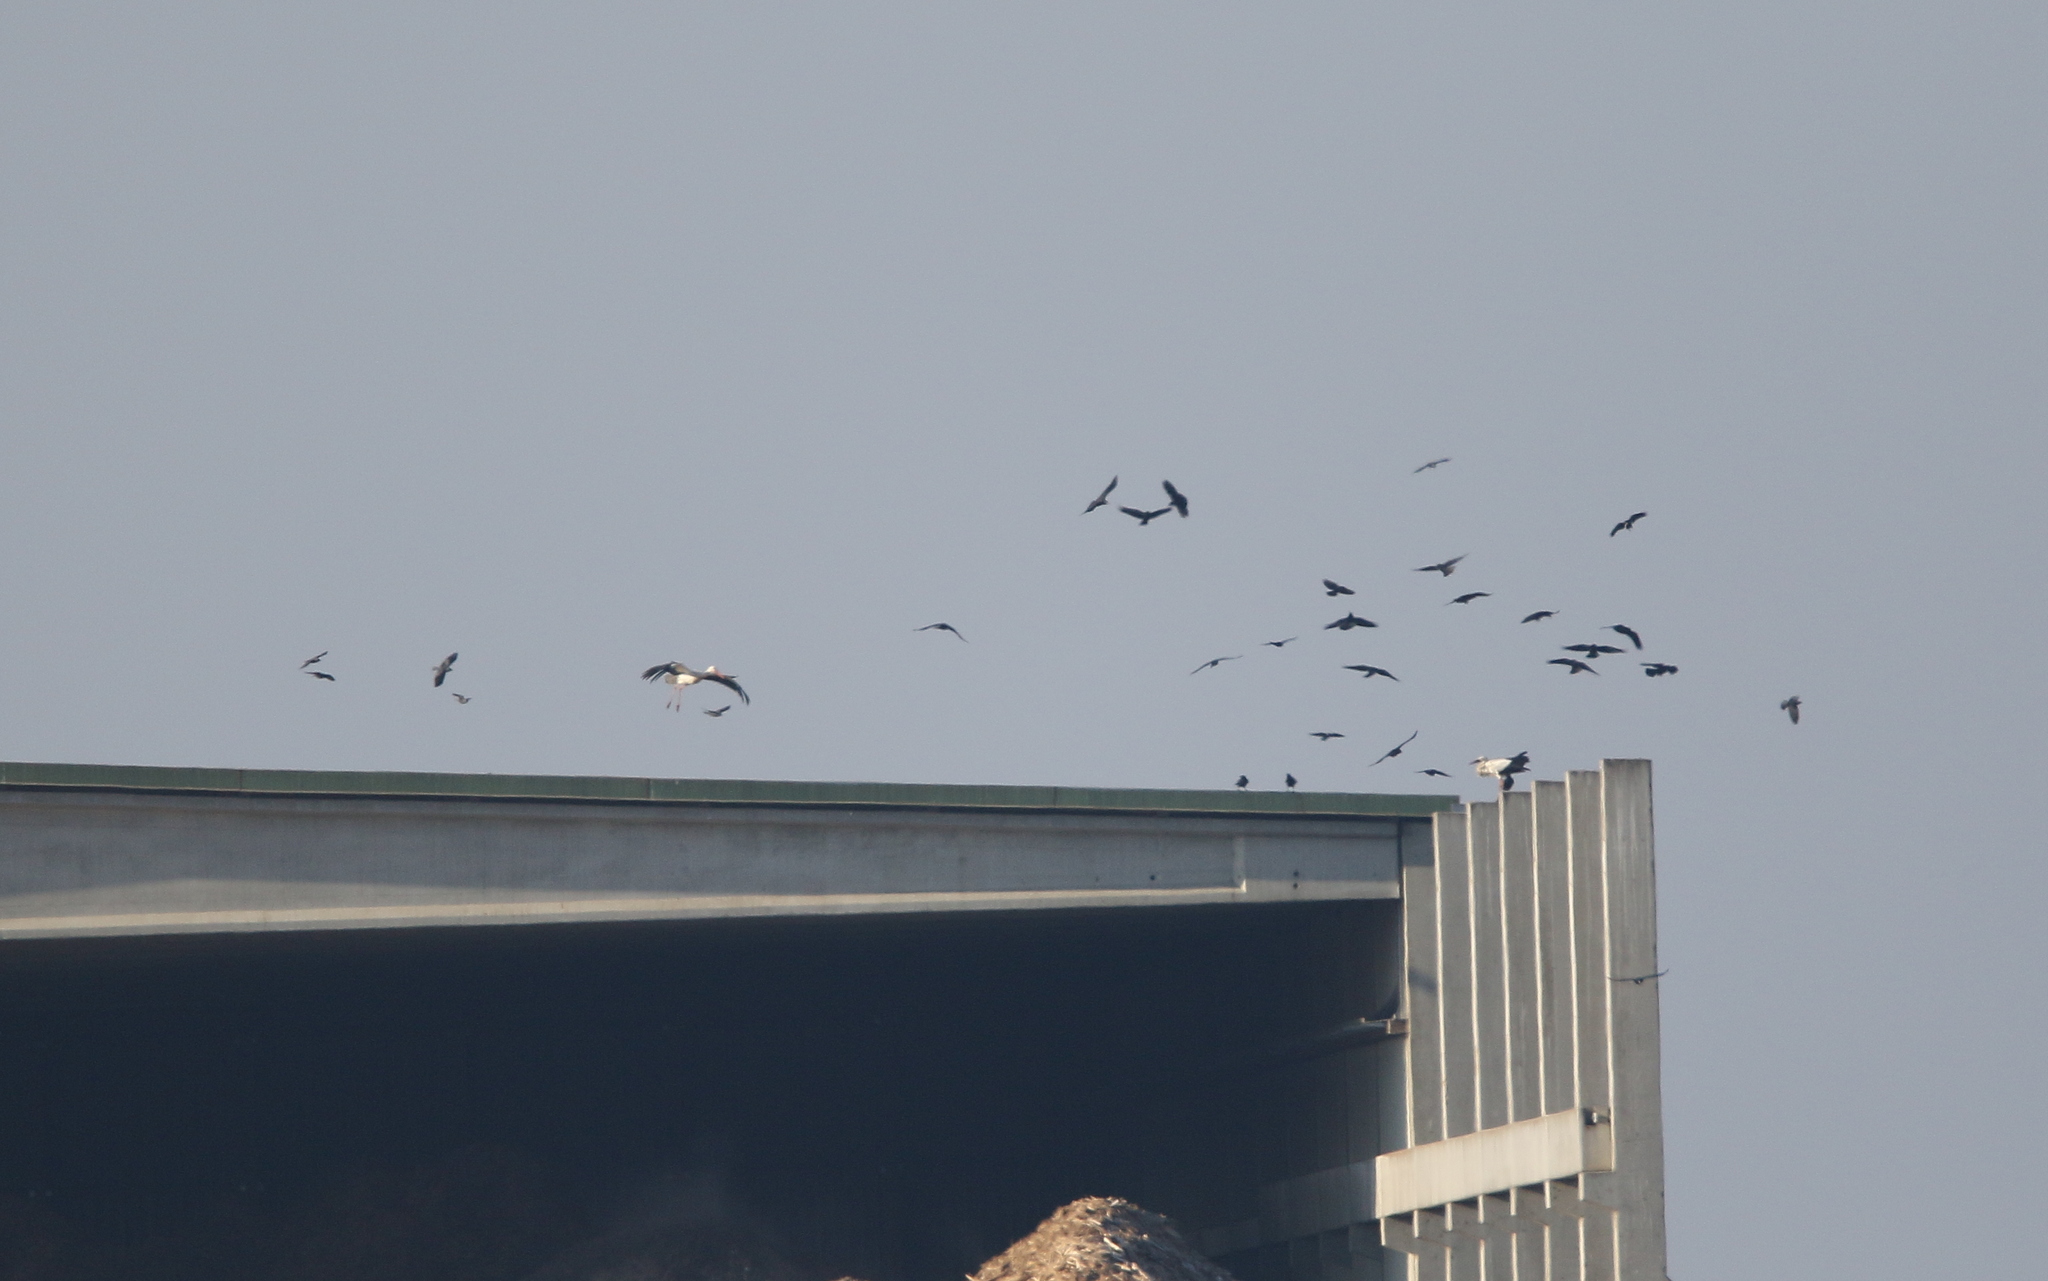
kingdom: Animalia
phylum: Chordata
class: Aves
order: Ciconiiformes
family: Ciconiidae
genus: Ciconia
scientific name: Ciconia ciconia
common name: White stork
